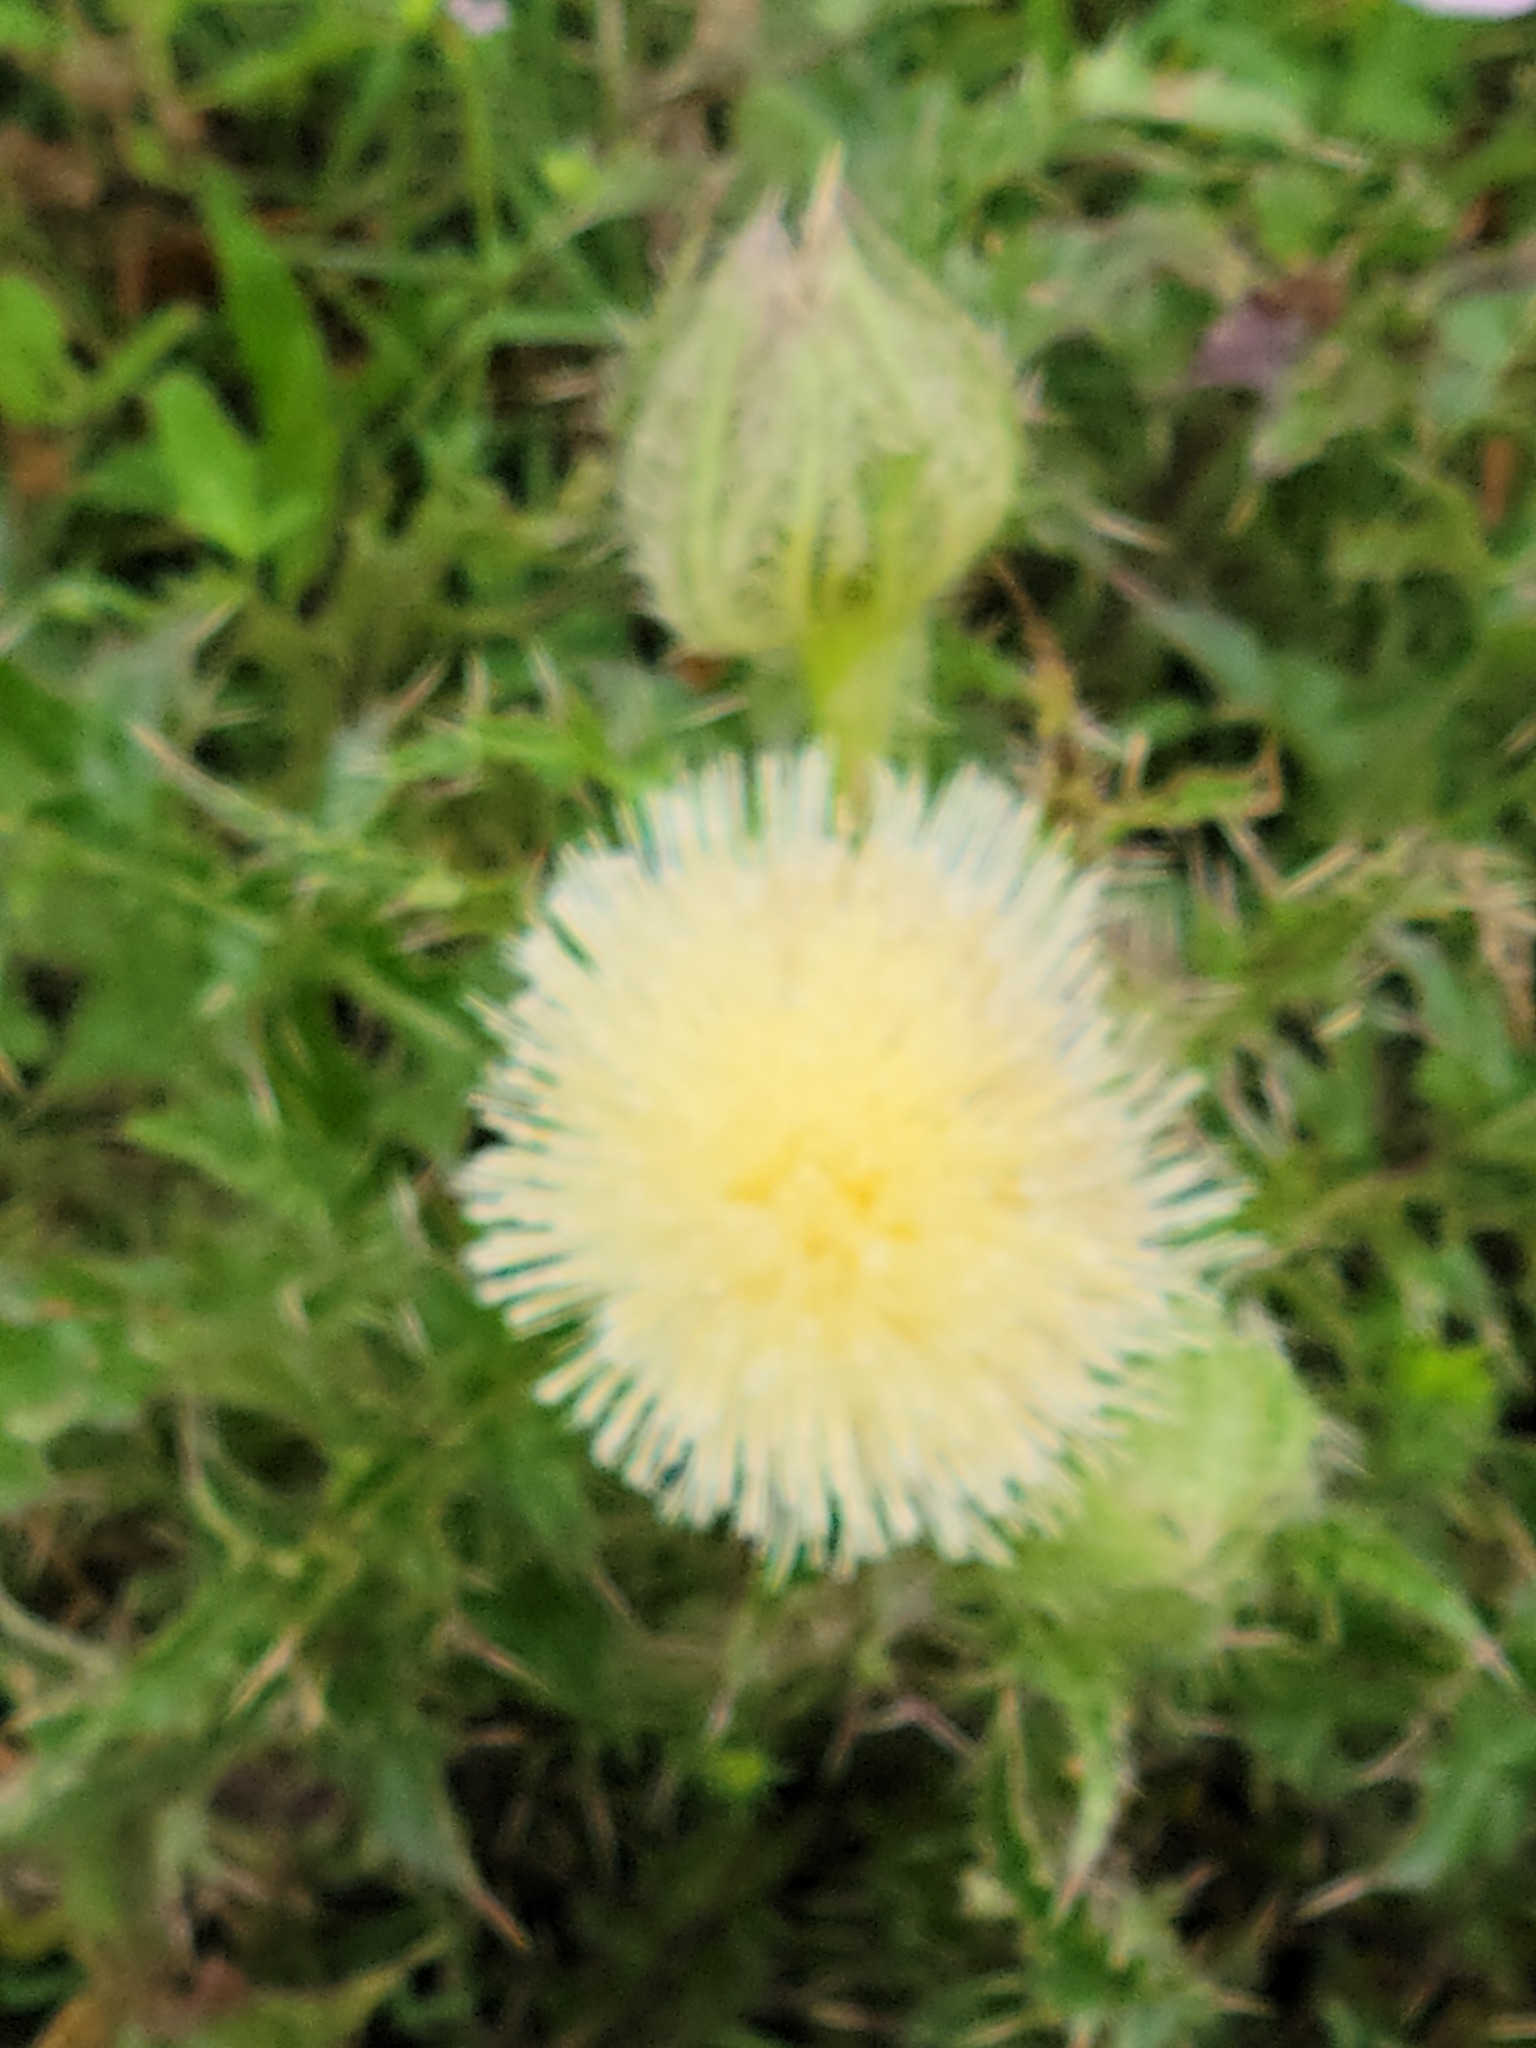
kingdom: Plantae
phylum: Tracheophyta
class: Magnoliopsida
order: Asterales
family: Asteraceae
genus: Cirsium
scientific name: Cirsium horridulum
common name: Bristly thistle
